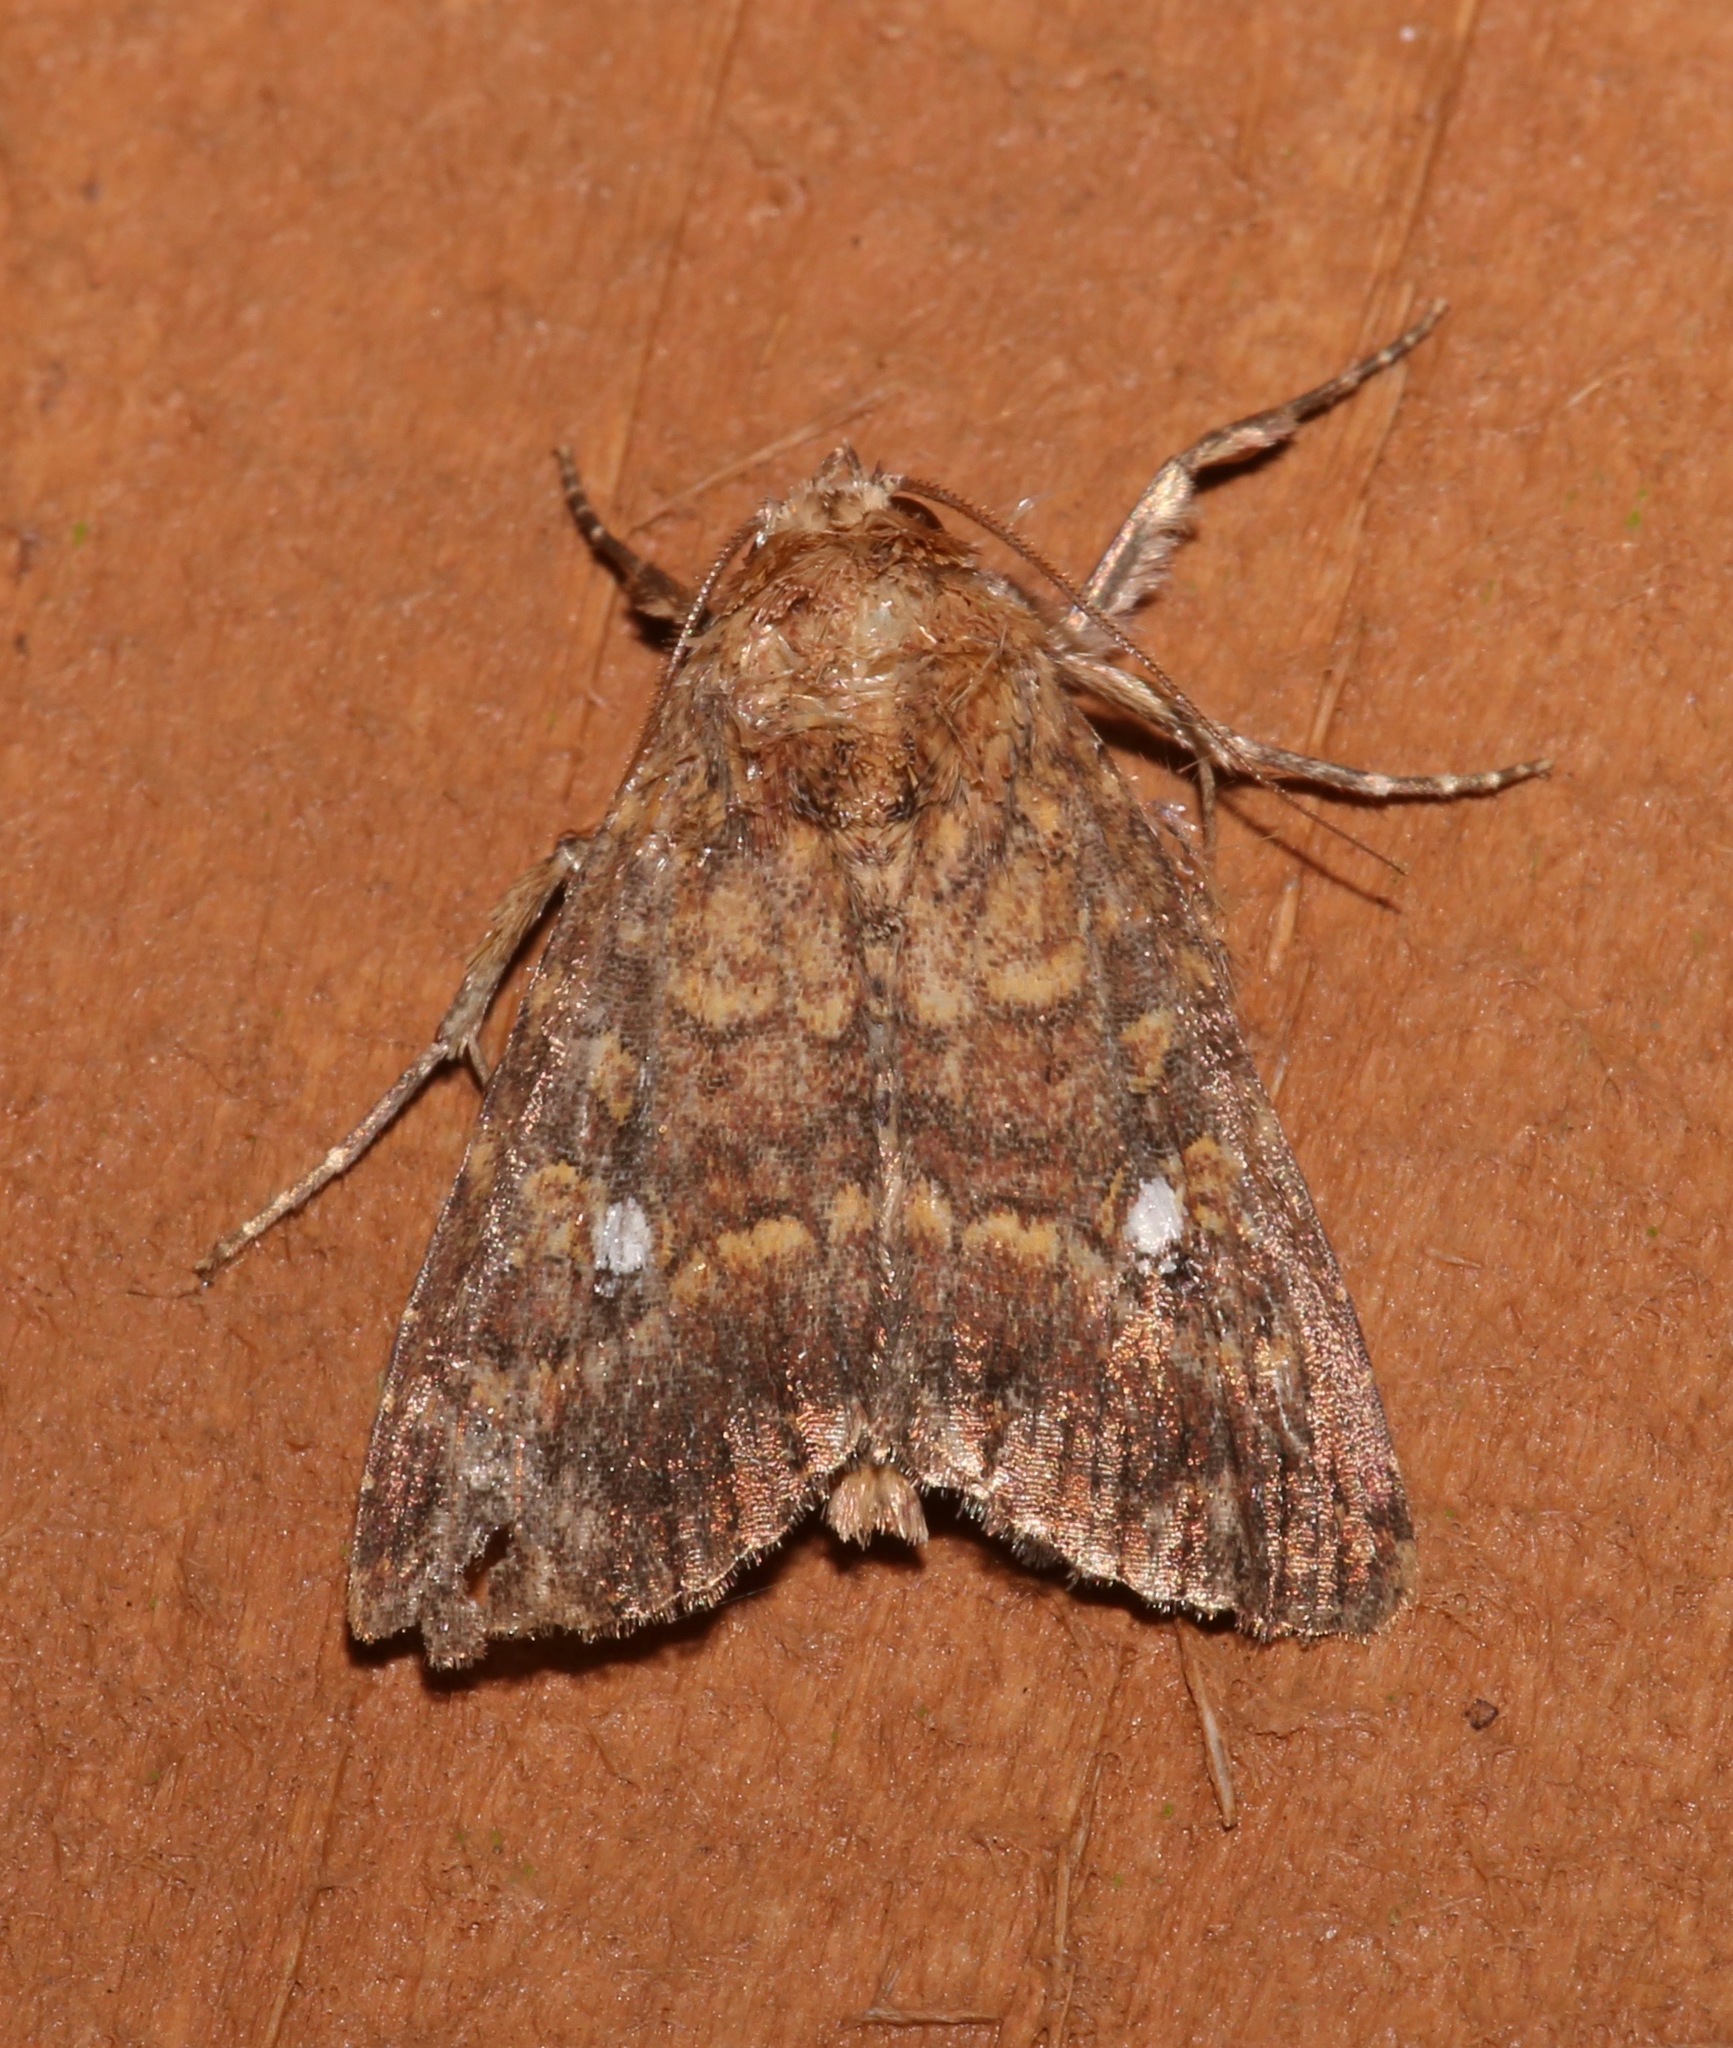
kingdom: Animalia
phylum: Arthropoda
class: Insecta
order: Lepidoptera
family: Noctuidae
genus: Condica
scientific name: Condica mobilis
